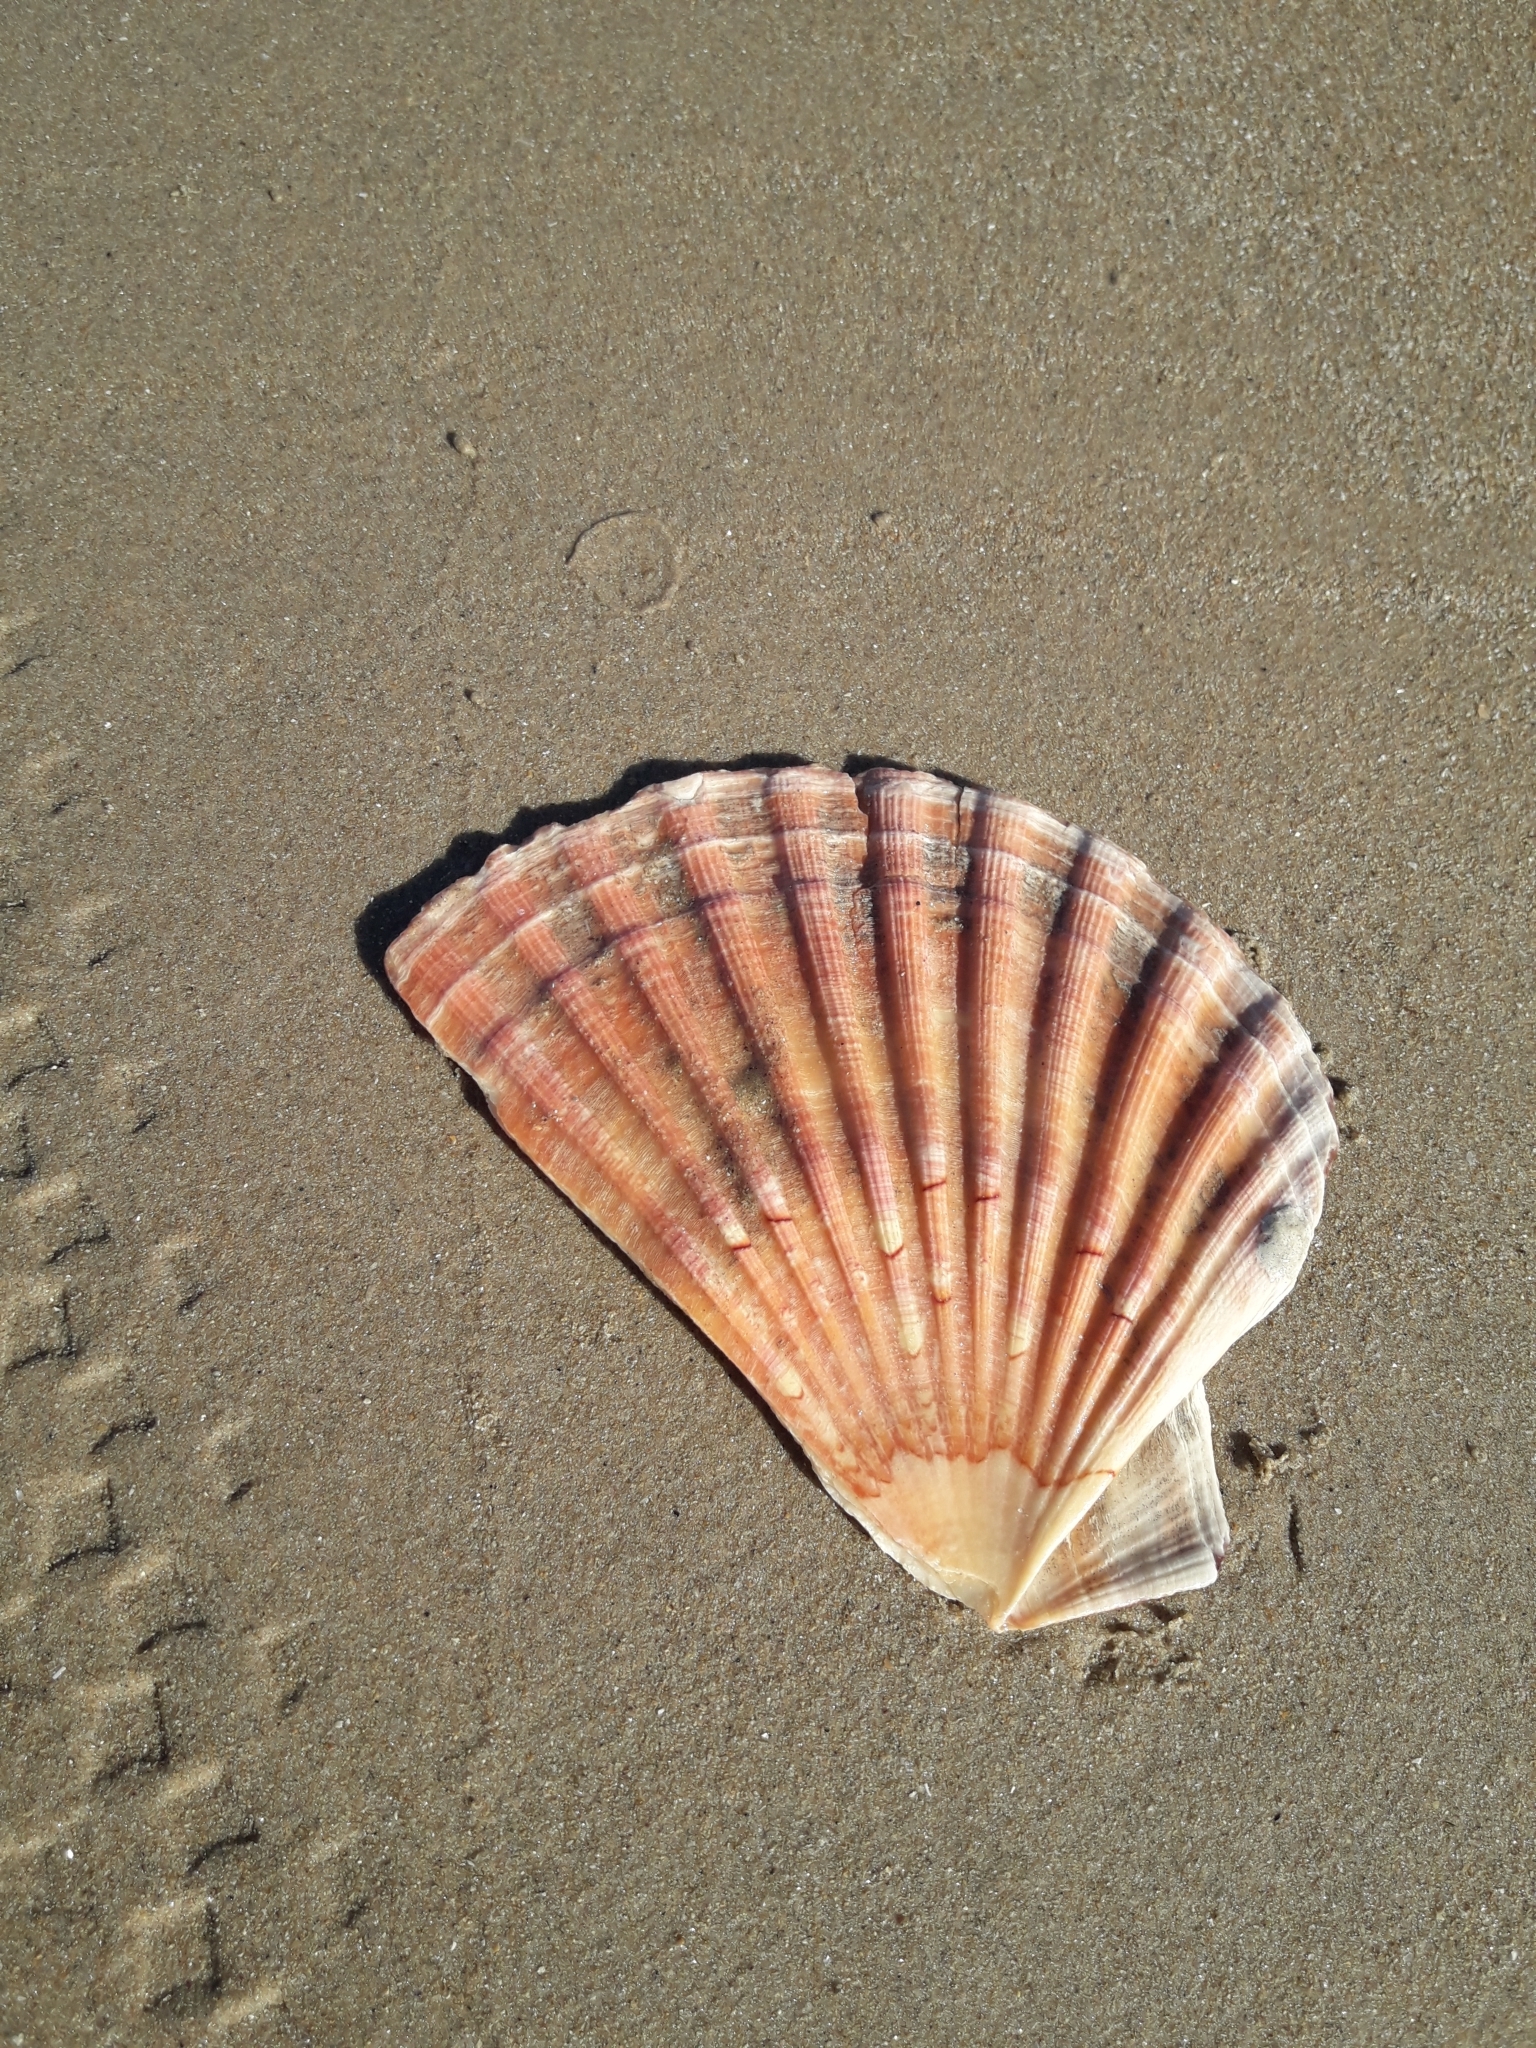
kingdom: Animalia
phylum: Mollusca
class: Bivalvia
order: Pectinida
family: Pectinidae
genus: Pecten
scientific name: Pecten maximus
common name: Great scallop
